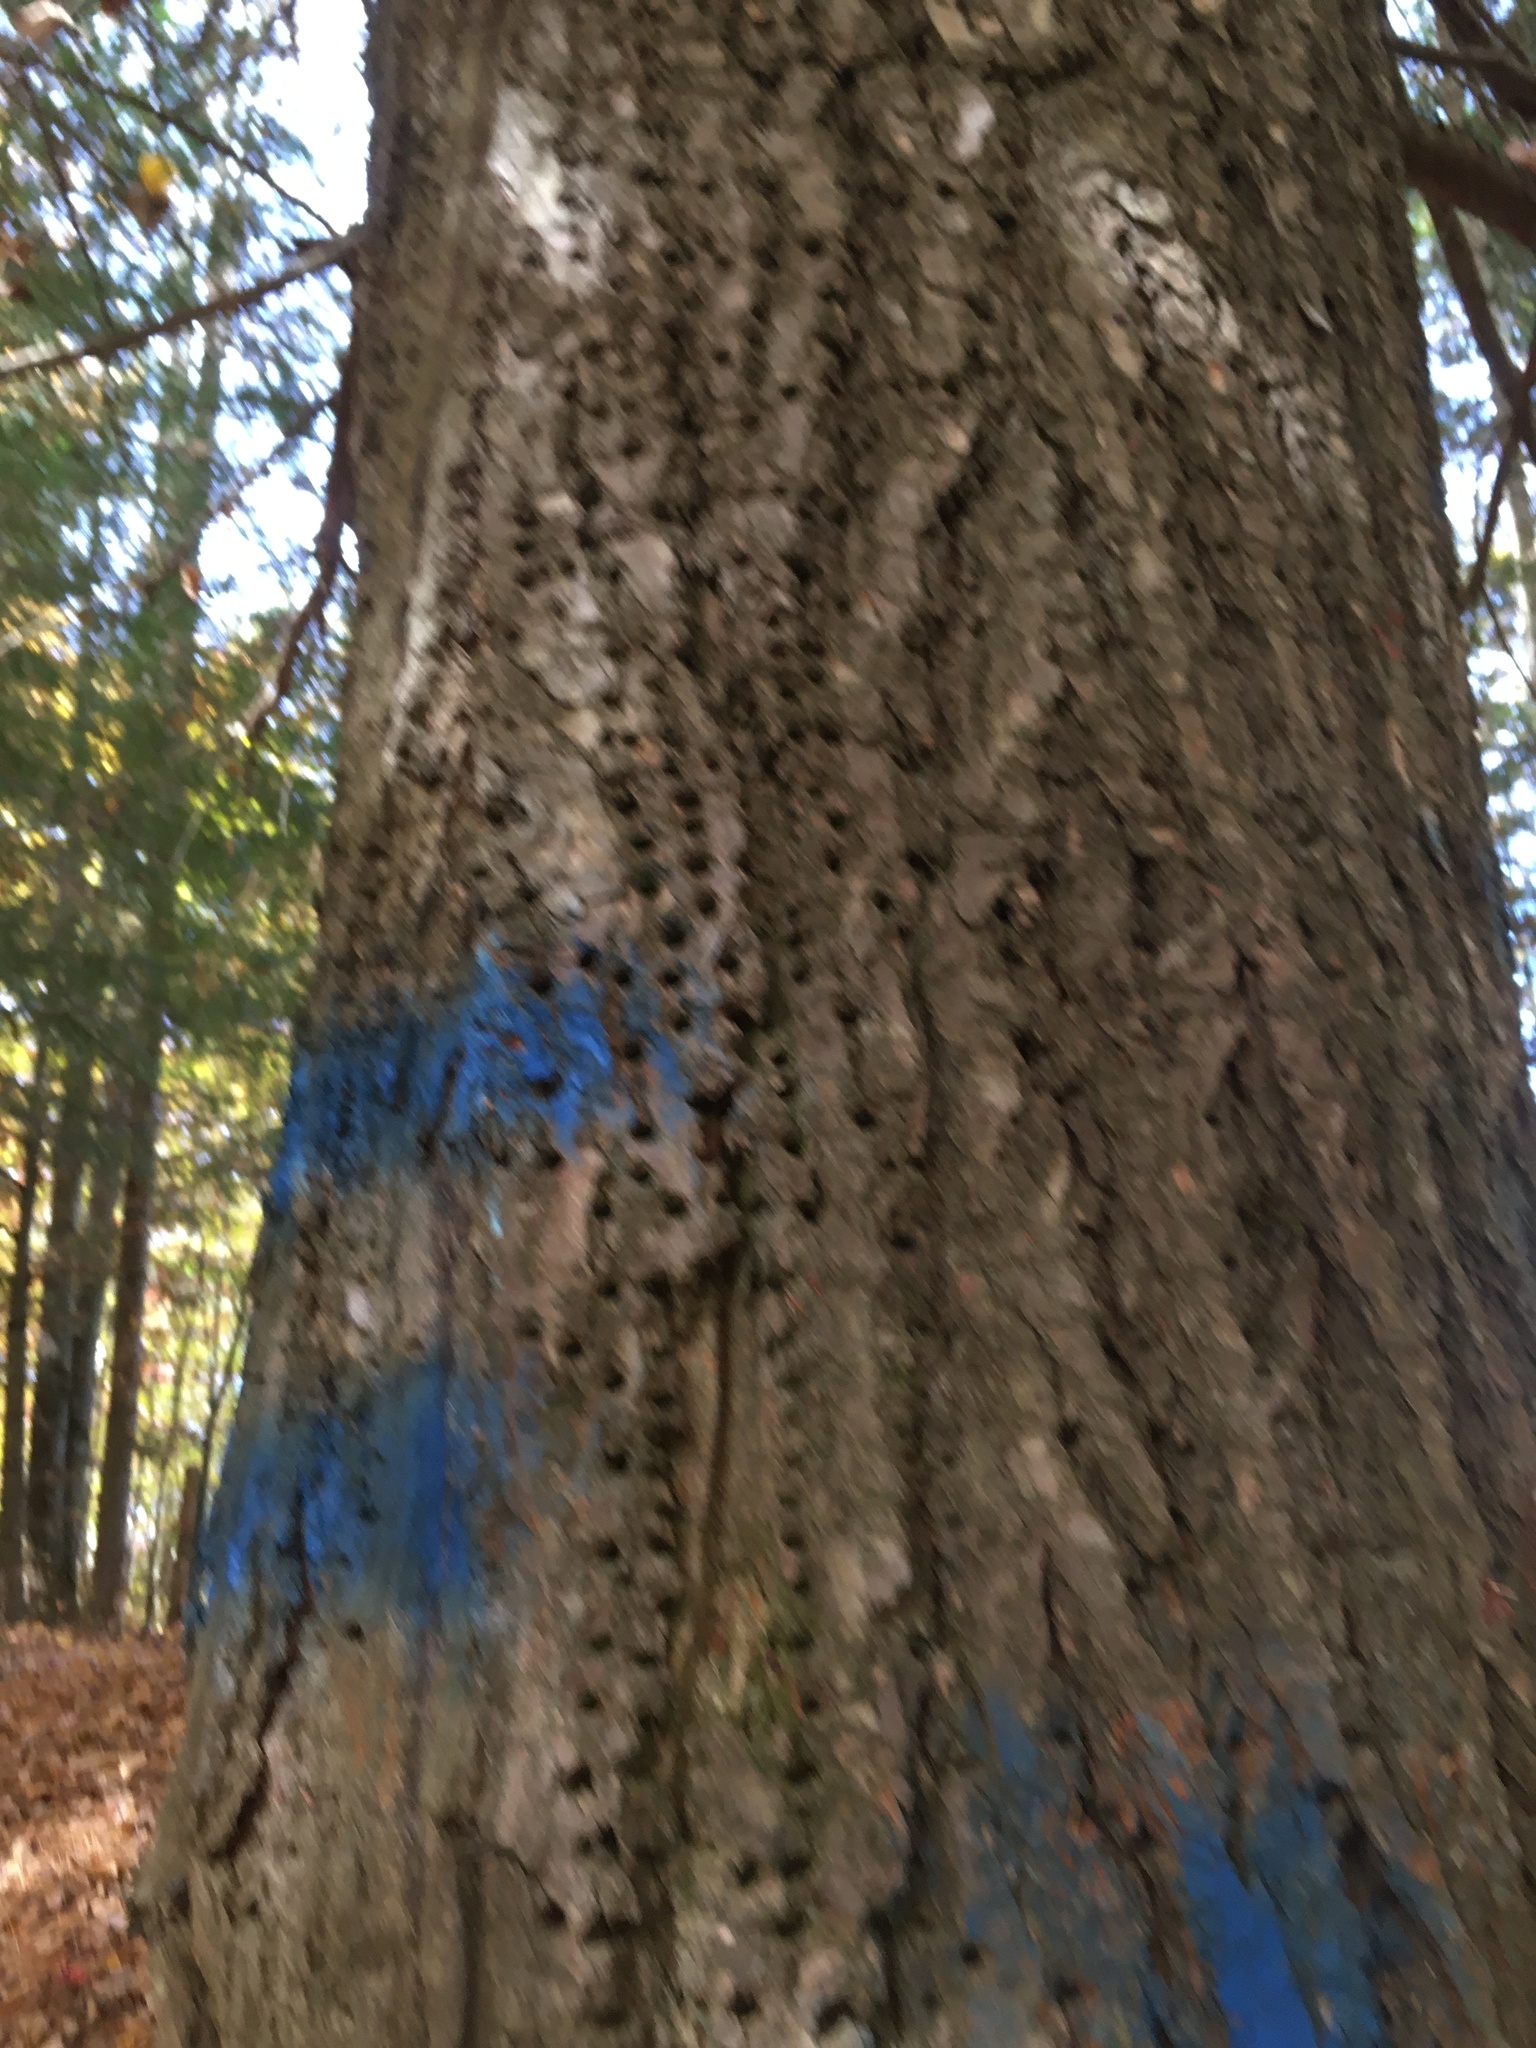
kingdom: Animalia
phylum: Chordata
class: Aves
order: Piciformes
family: Picidae
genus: Sphyrapicus
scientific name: Sphyrapicus varius
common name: Yellow-bellied sapsucker
